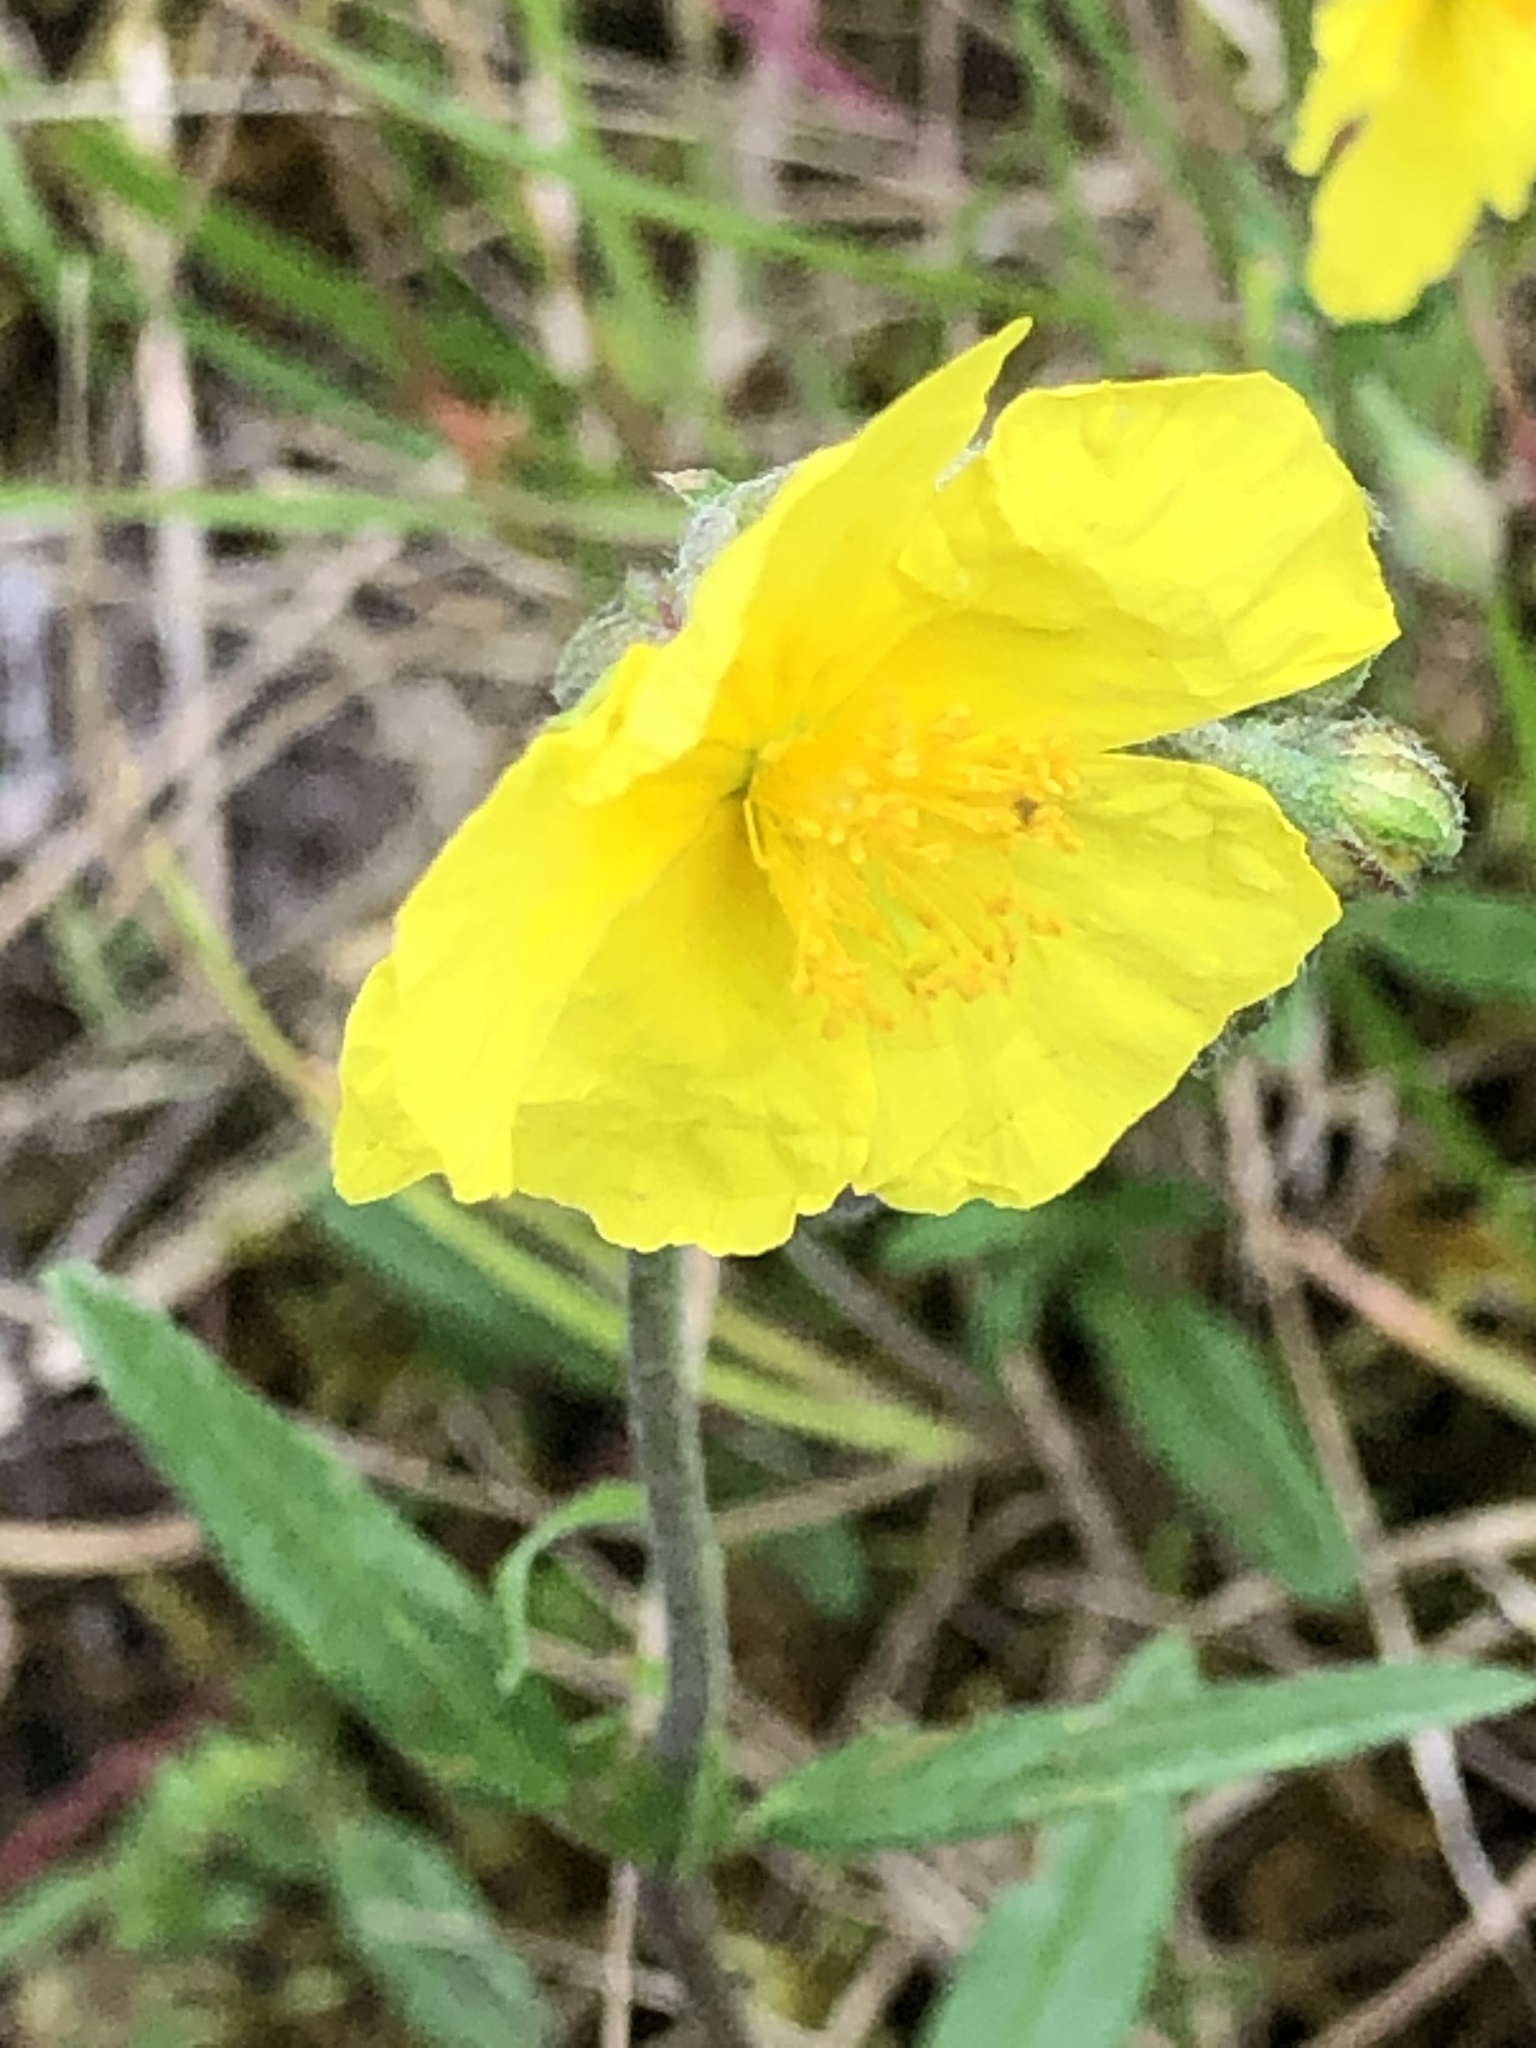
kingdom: Plantae
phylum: Tracheophyta
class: Magnoliopsida
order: Malvales
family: Cistaceae
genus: Helianthemum
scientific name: Helianthemum nummularium
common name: Common rock-rose
